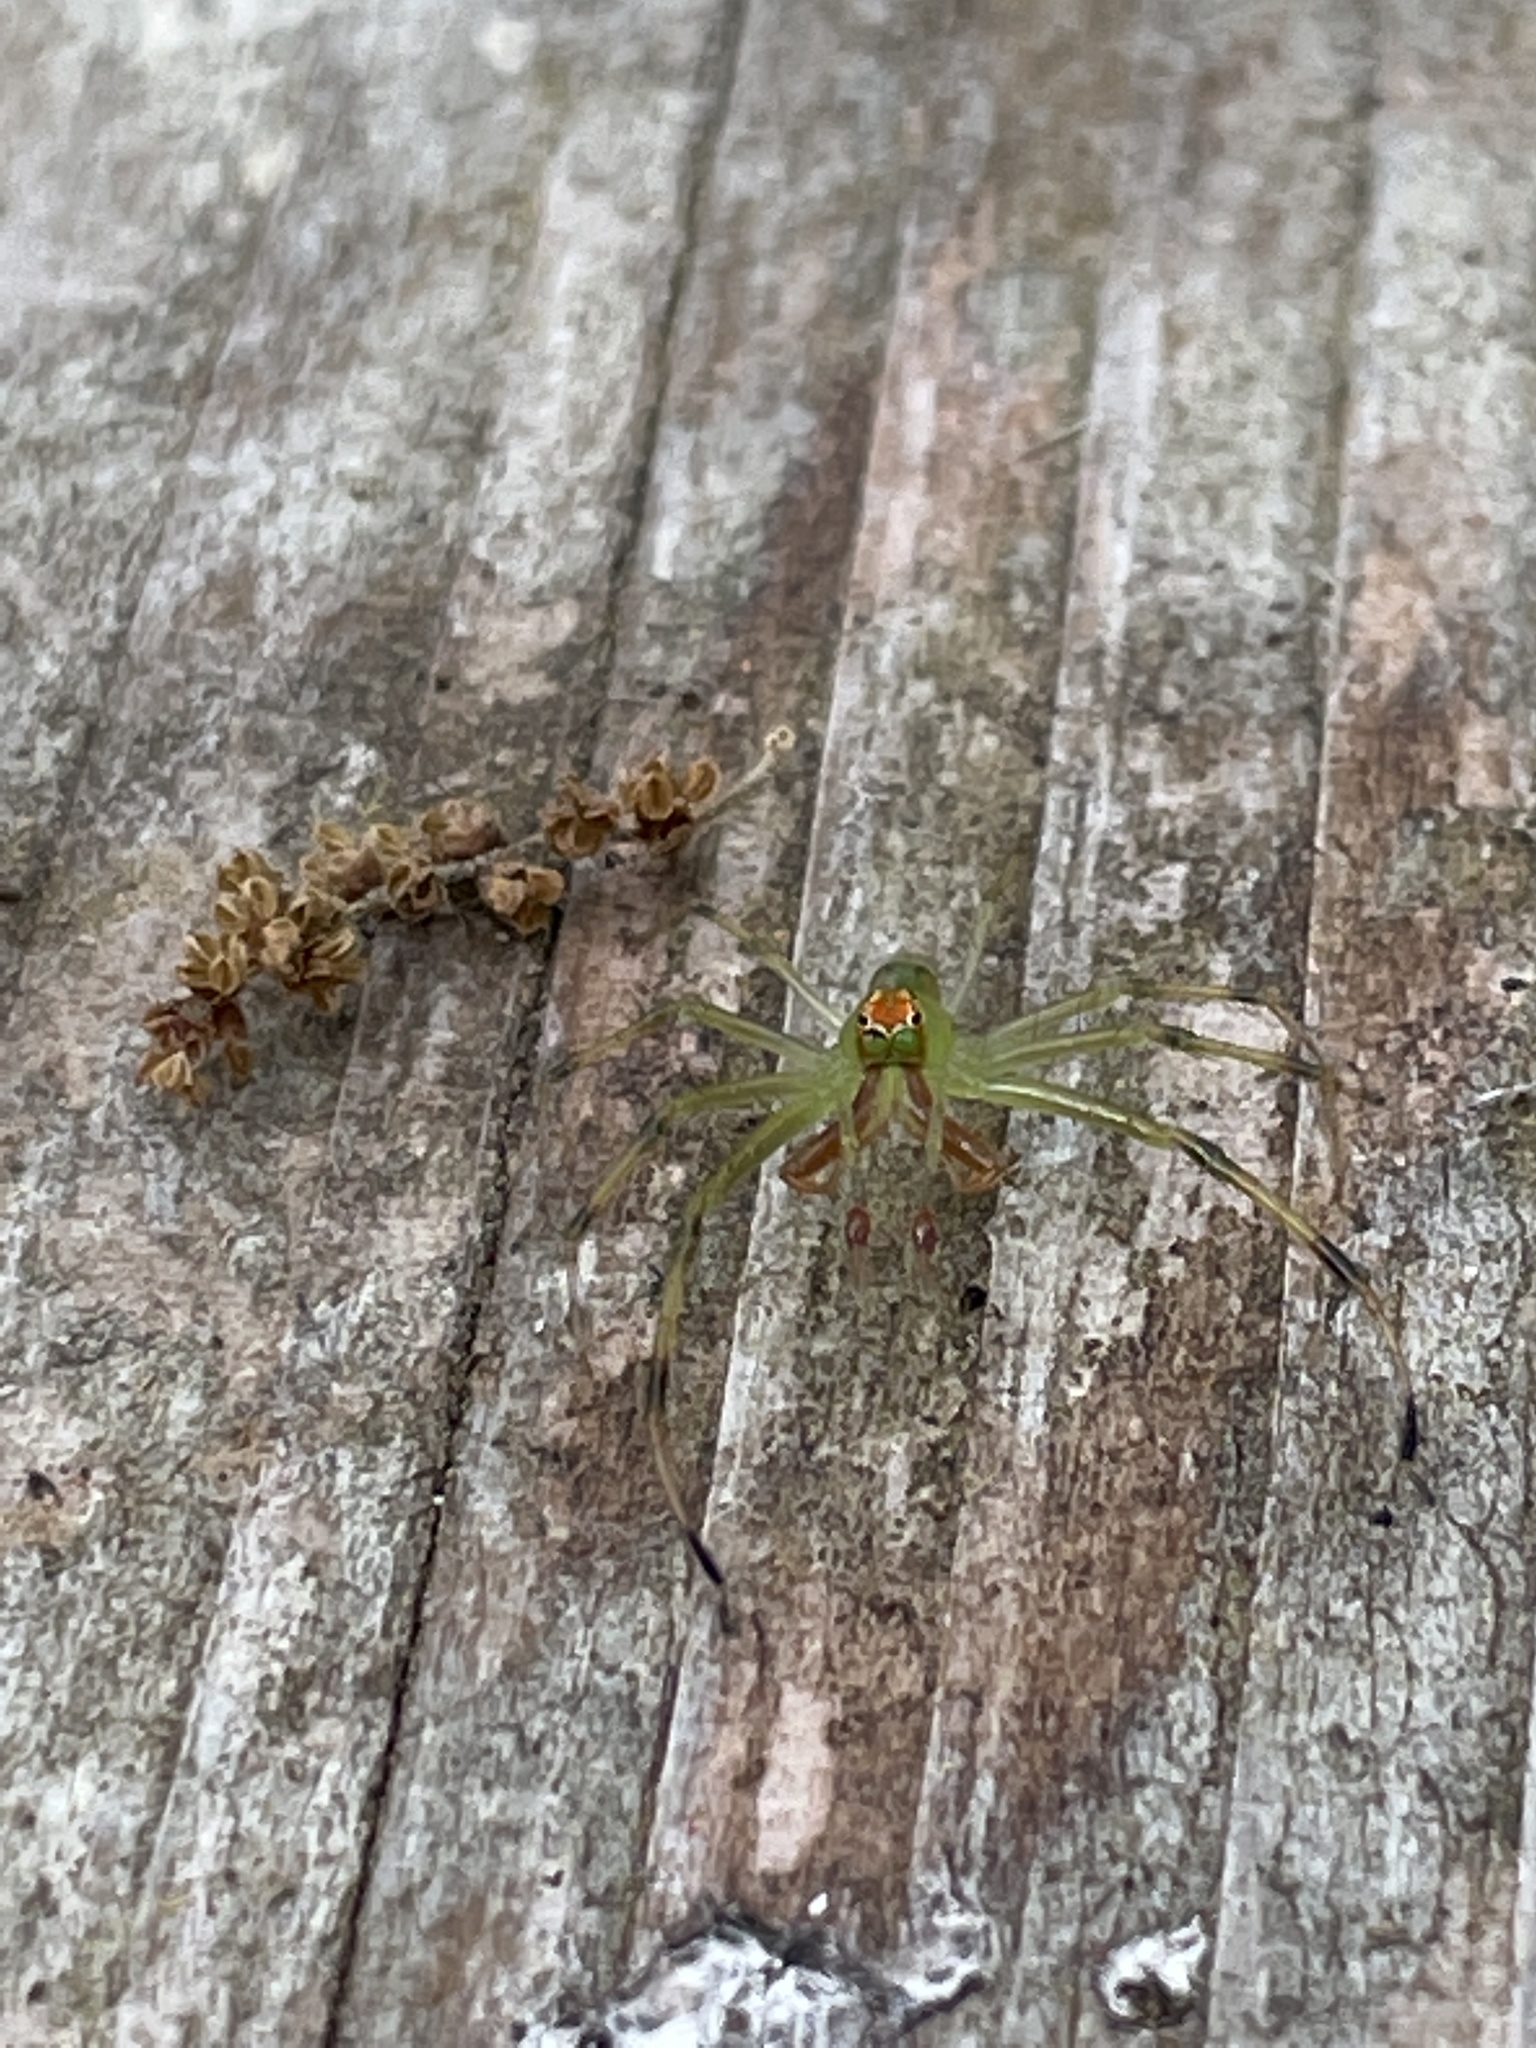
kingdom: Animalia
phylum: Arthropoda
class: Arachnida
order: Araneae
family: Salticidae
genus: Lyssomanes
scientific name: Lyssomanes viridis
